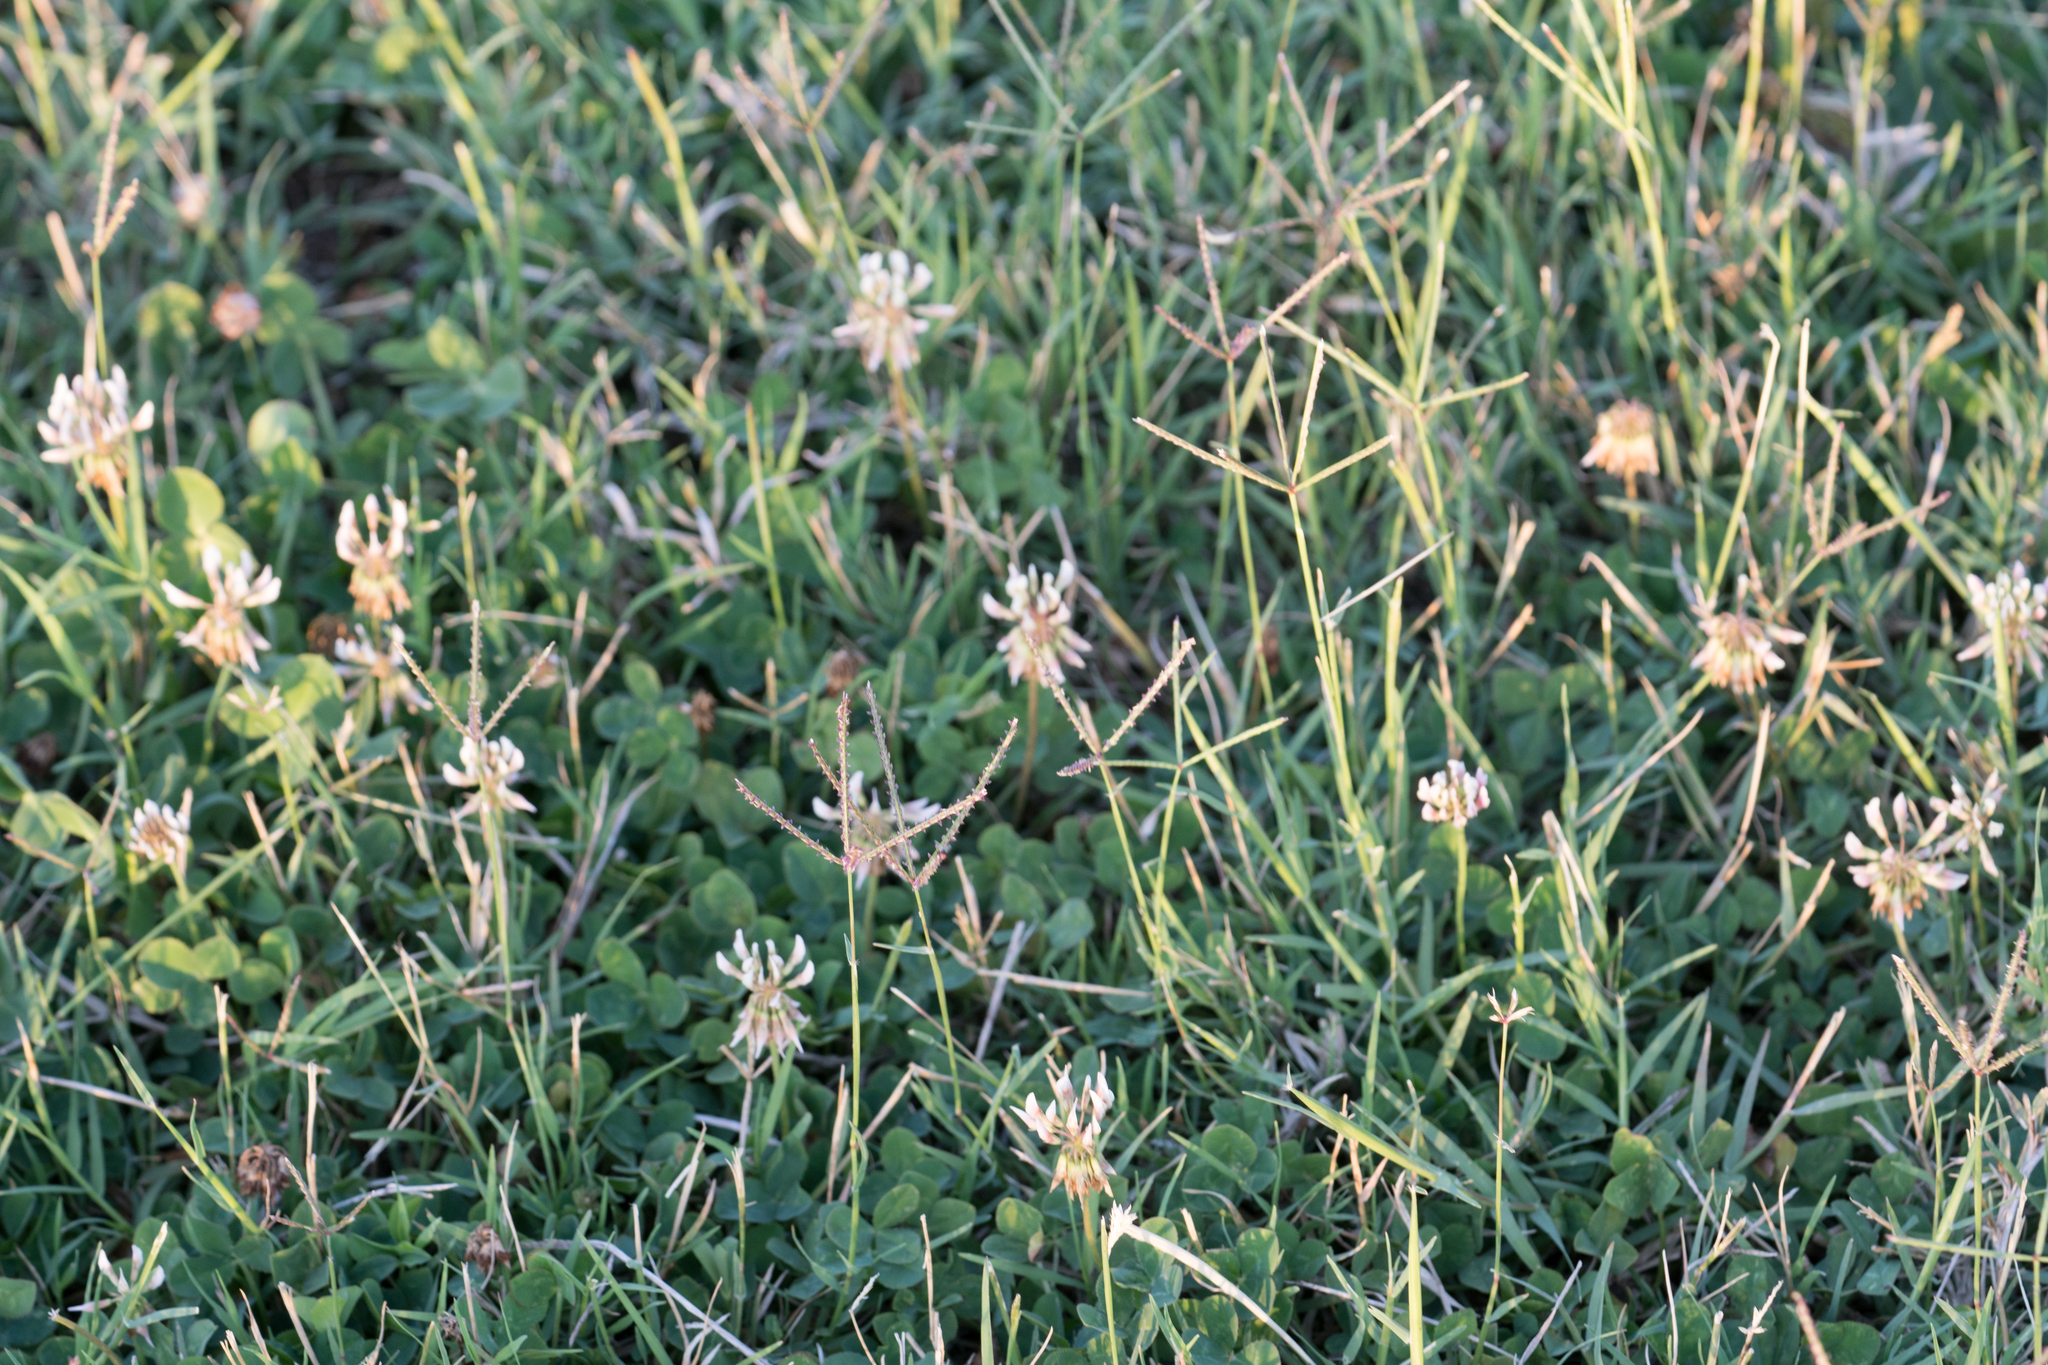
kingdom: Plantae
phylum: Tracheophyta
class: Magnoliopsida
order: Fabales
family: Fabaceae
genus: Trifolium
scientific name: Trifolium repens
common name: White clover
